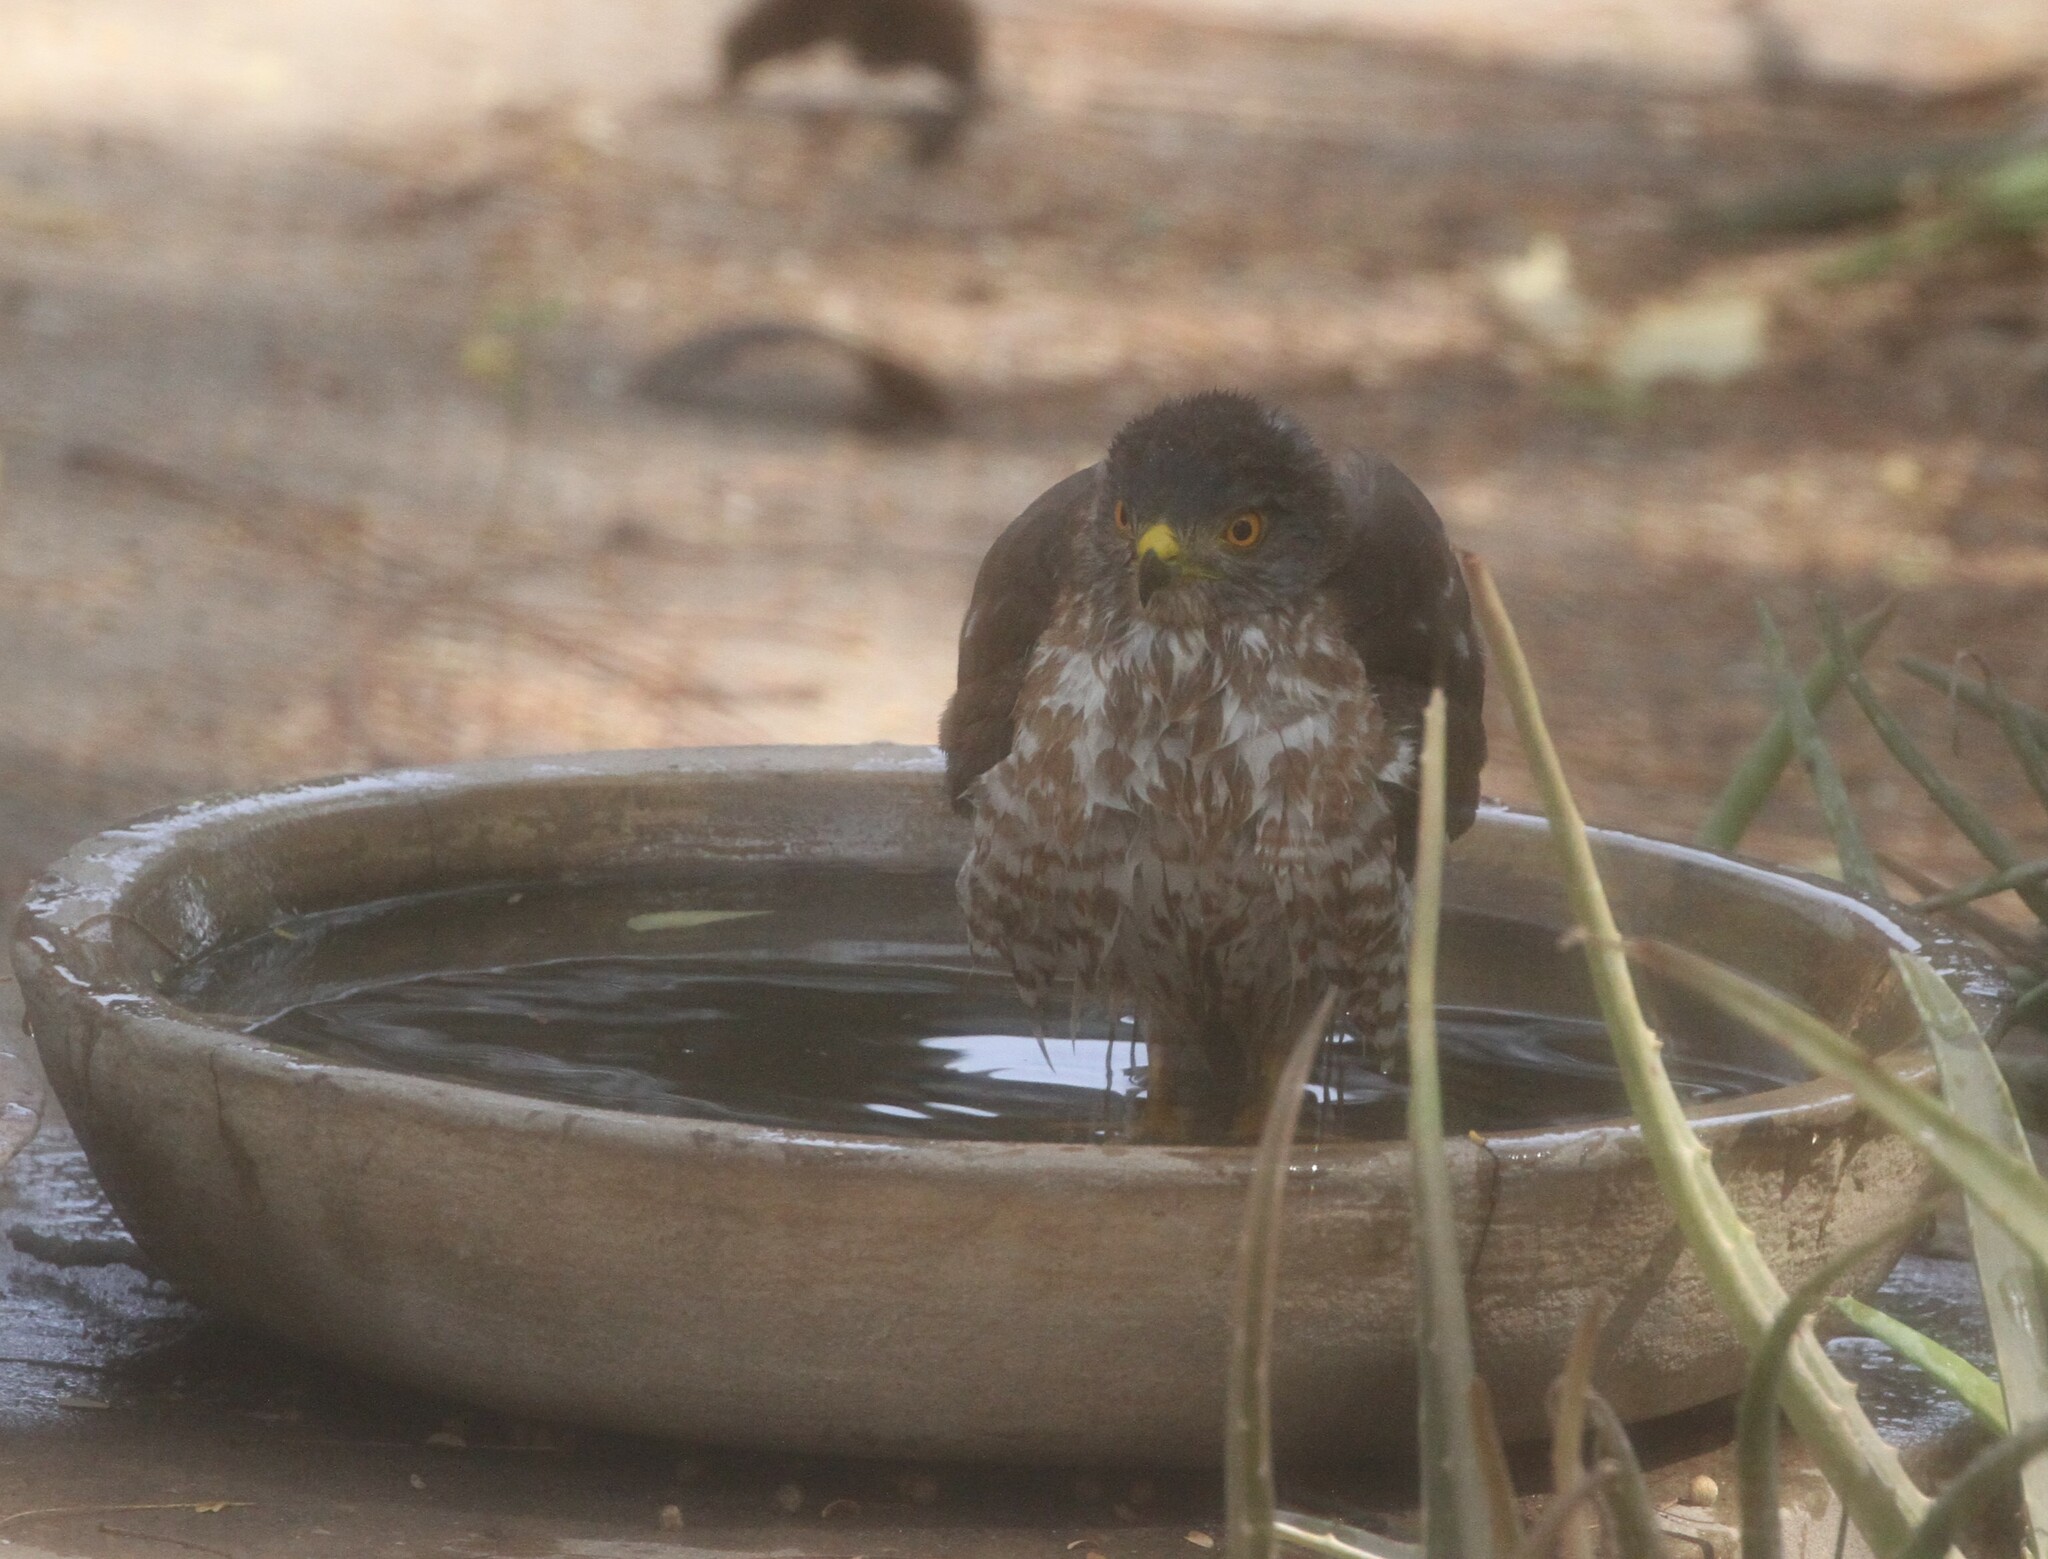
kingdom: Animalia
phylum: Chordata
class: Aves
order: Accipitriformes
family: Accipitridae
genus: Accipiter
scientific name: Accipiter badius
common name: Shikra
